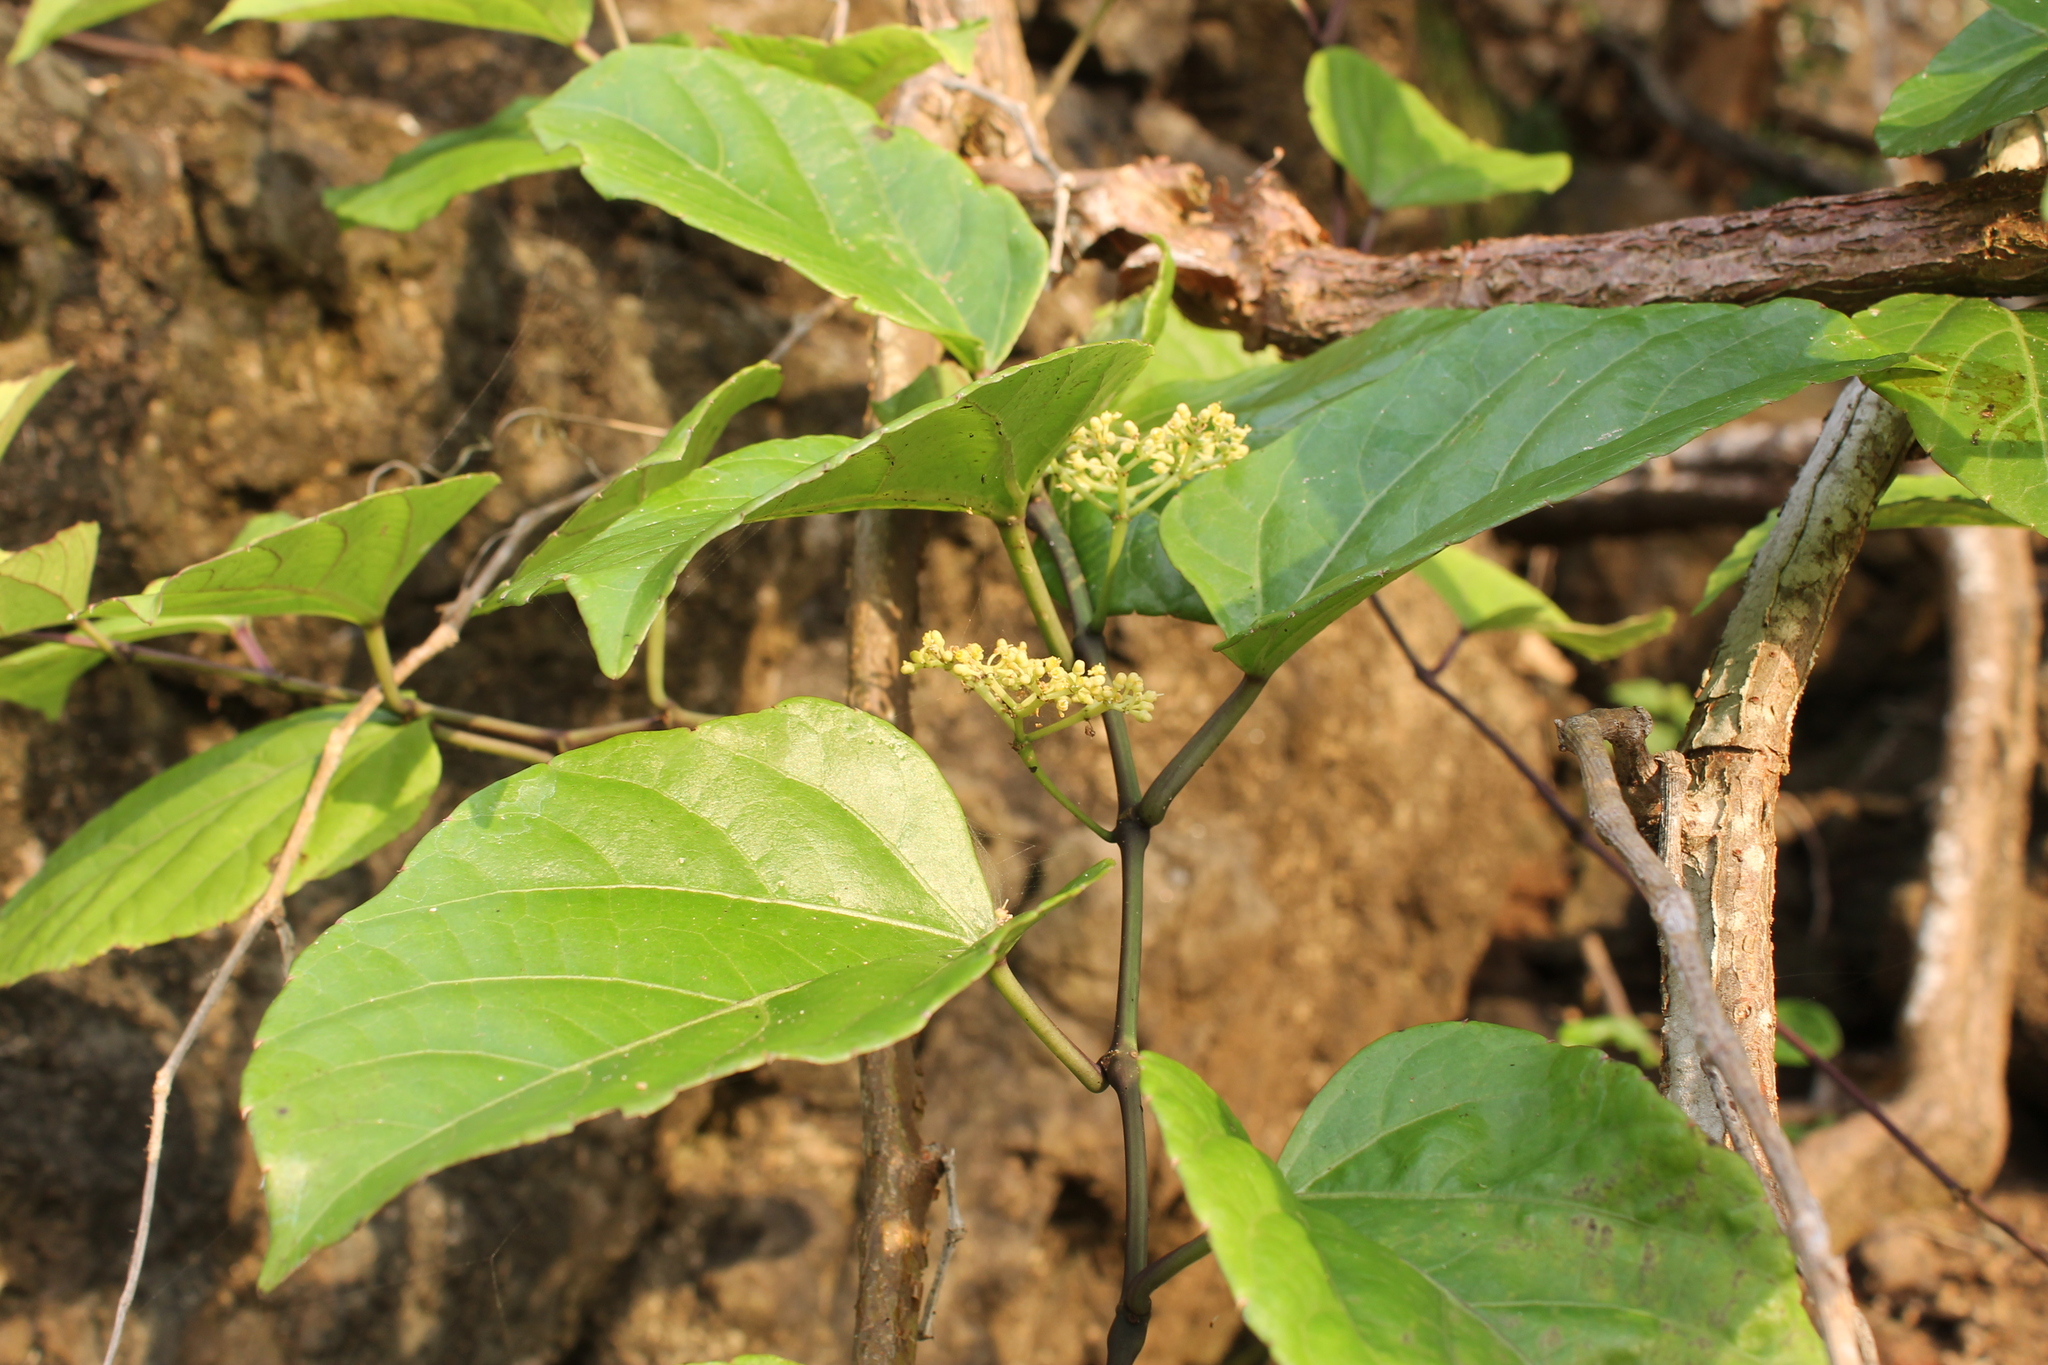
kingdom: Plantae
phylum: Tracheophyta
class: Magnoliopsida
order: Vitales
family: Vitaceae
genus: Cissus
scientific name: Cissus verticillata
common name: Princess vine
